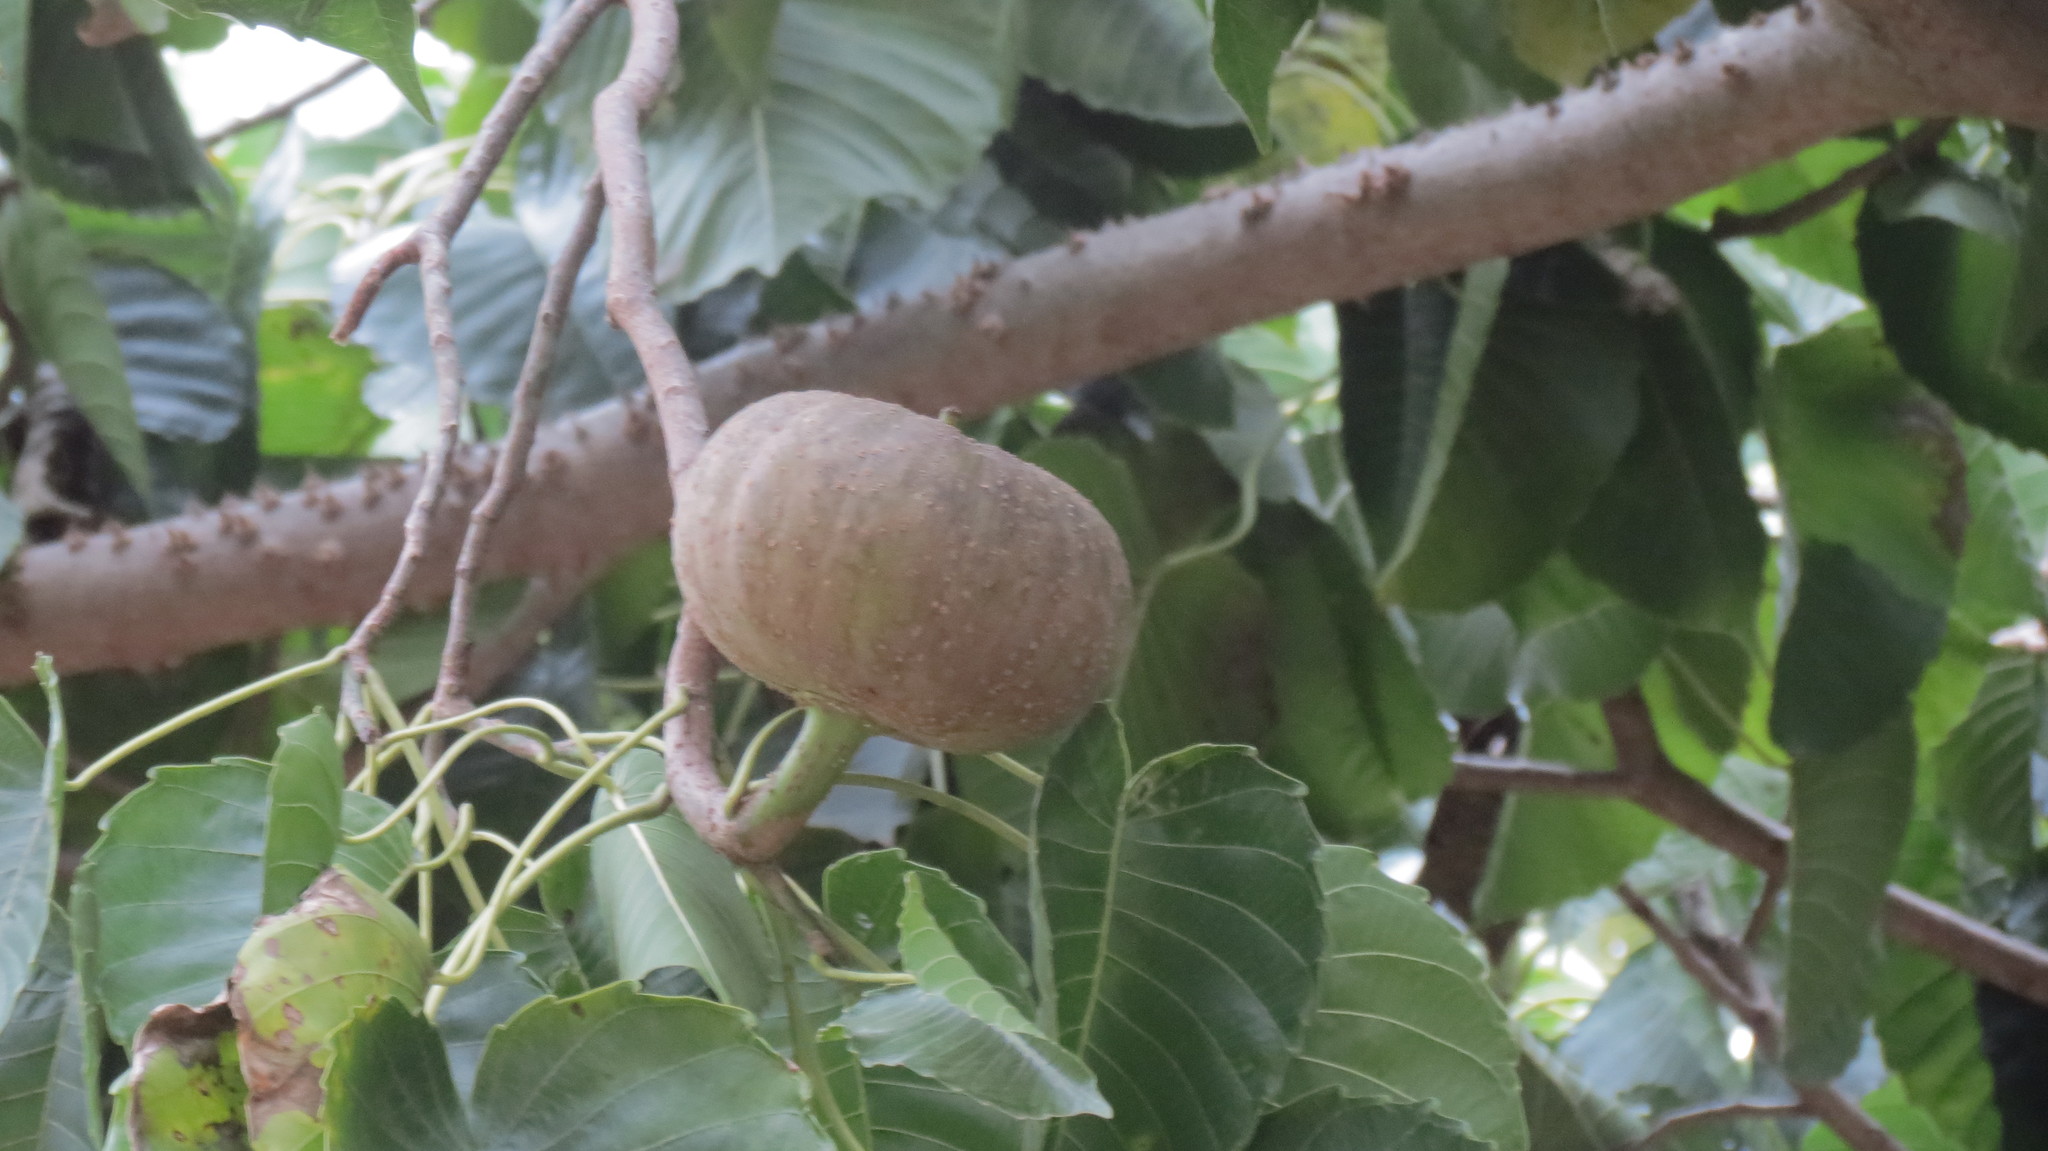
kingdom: Plantae
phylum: Tracheophyta
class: Magnoliopsida
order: Malpighiales
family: Euphorbiaceae
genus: Hura
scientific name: Hura polyandra
